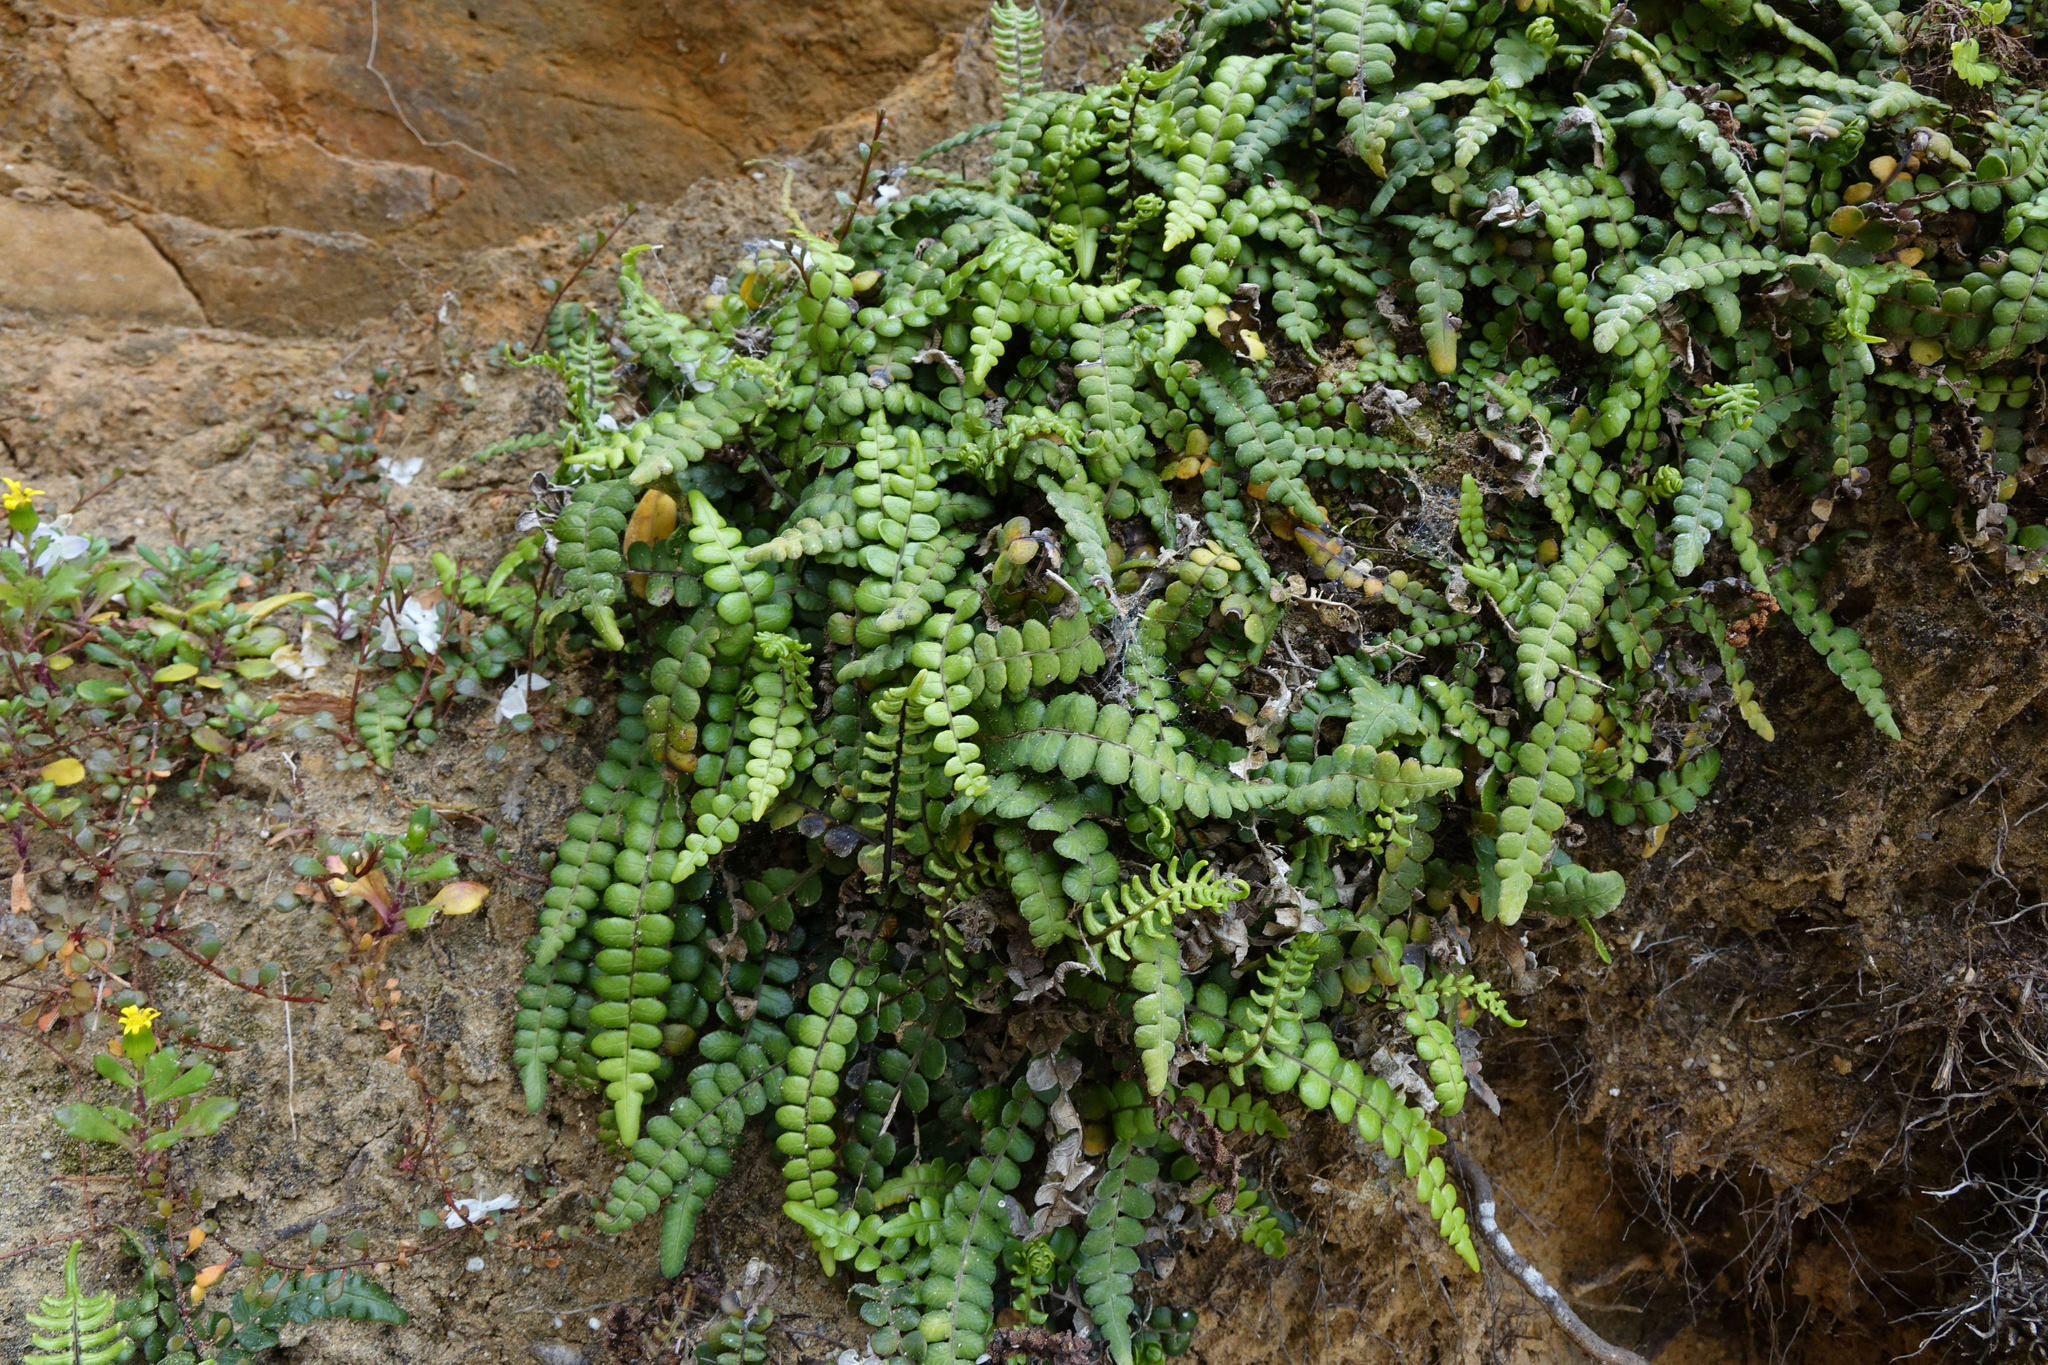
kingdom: Plantae
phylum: Tracheophyta
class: Polypodiopsida
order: Polypodiales
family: Blechnaceae
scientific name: Blechnaceae
